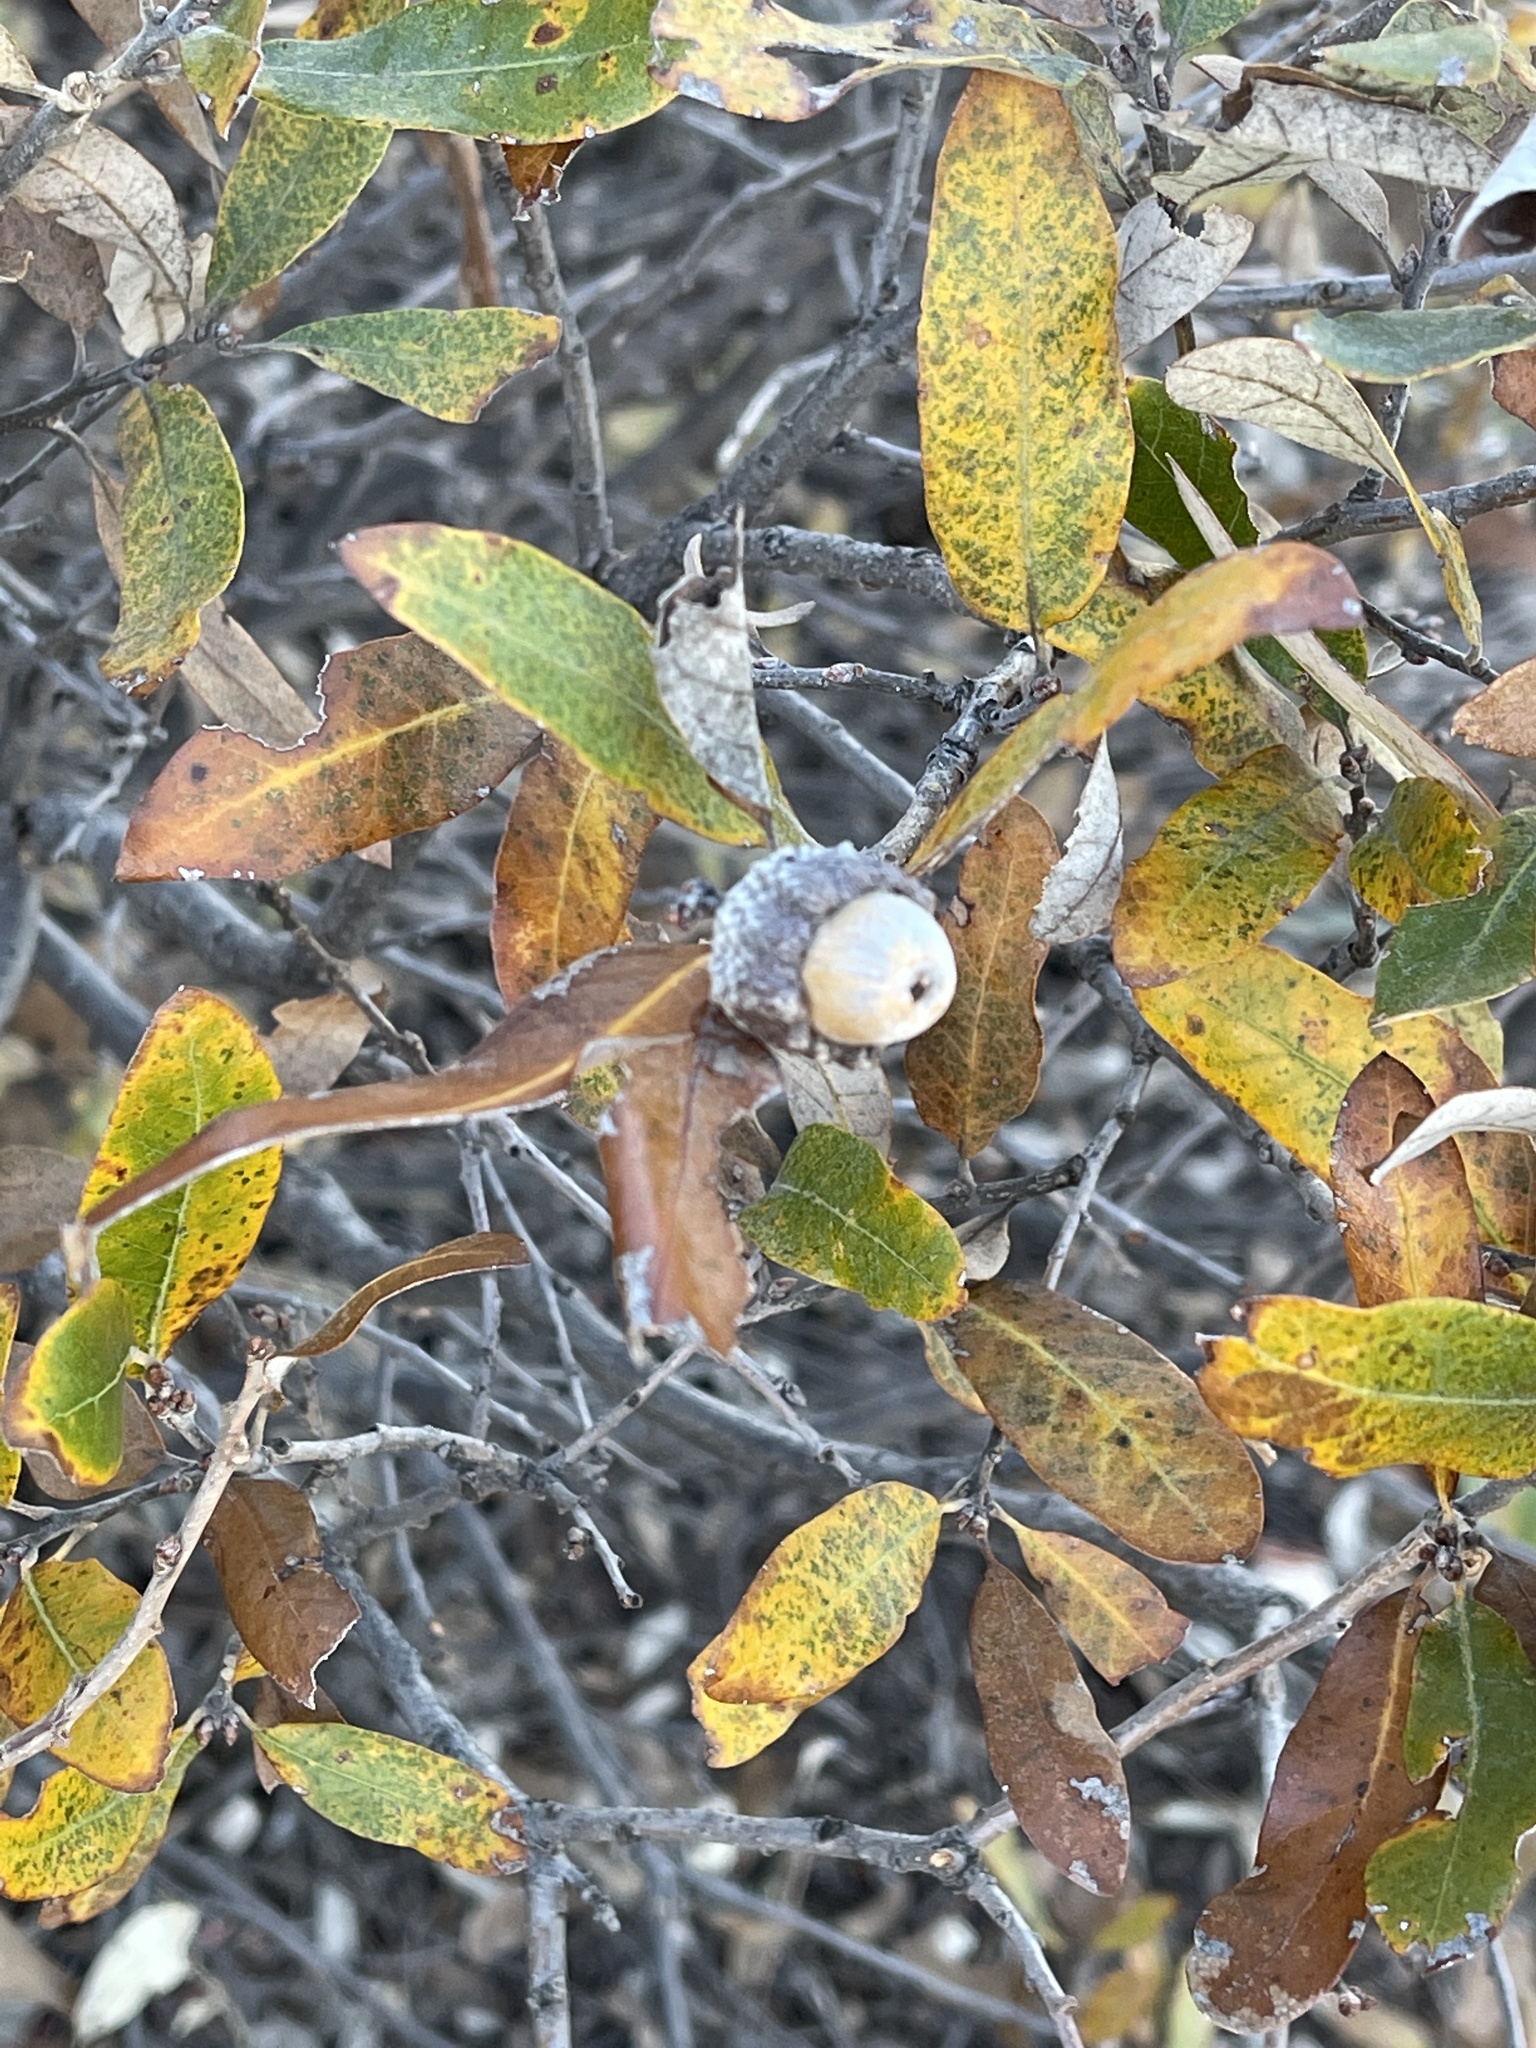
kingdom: Plantae
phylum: Tracheophyta
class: Magnoliopsida
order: Fagales
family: Fagaceae
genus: Quercus
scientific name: Quercus mohriana
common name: Mohr oak
